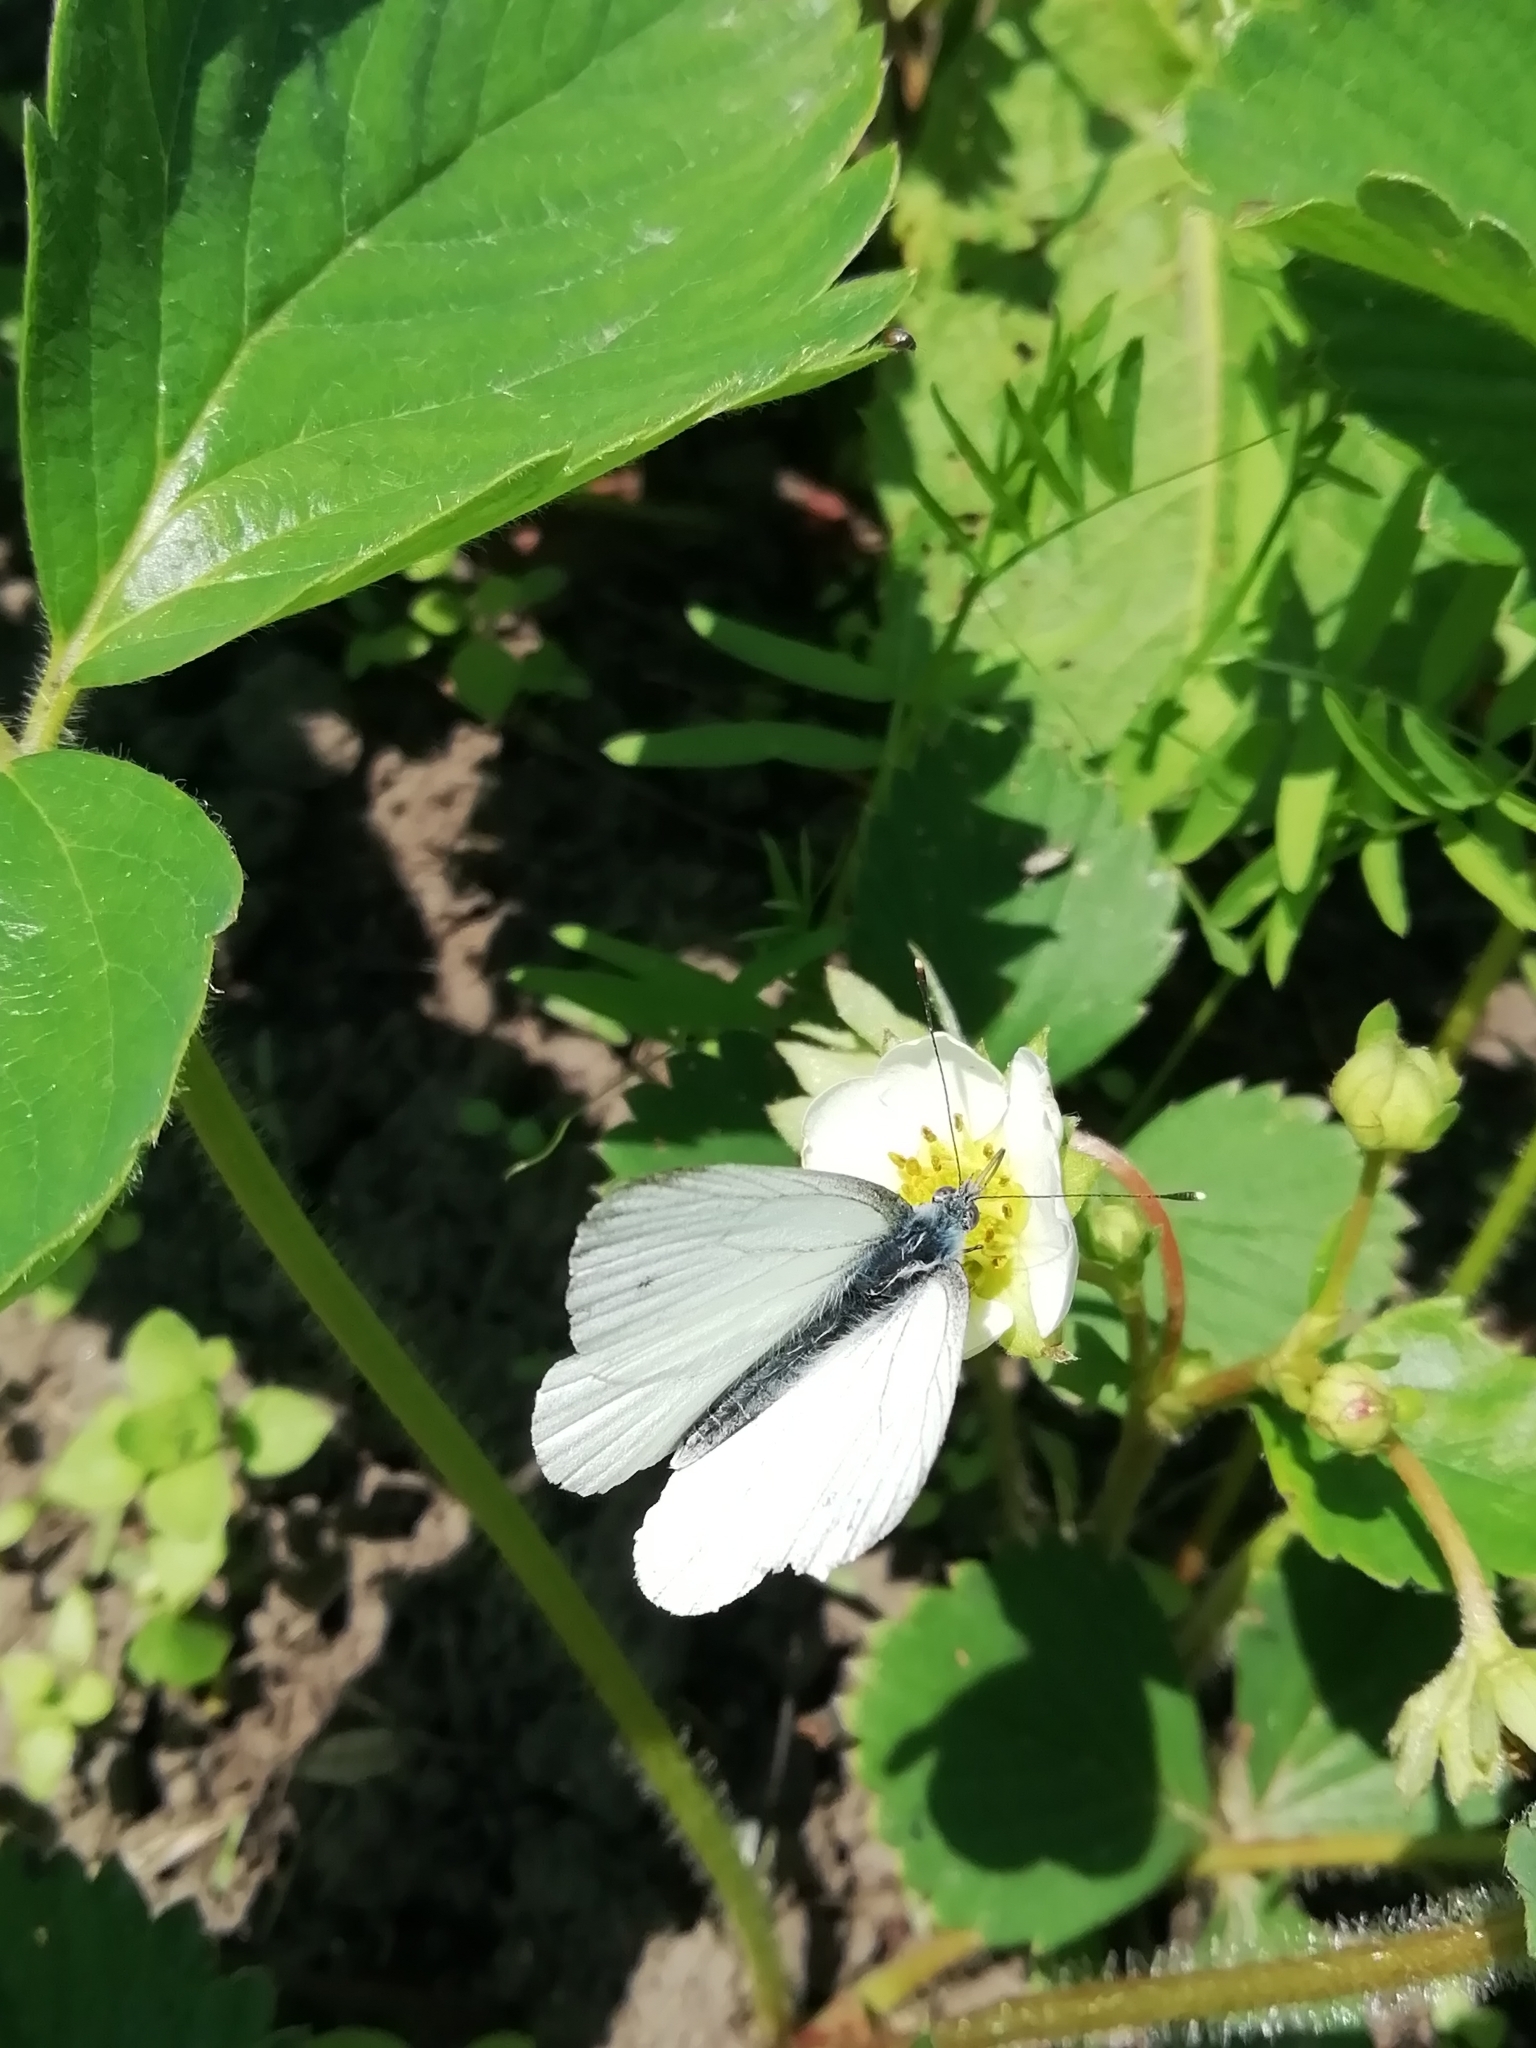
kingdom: Animalia
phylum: Arthropoda
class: Insecta
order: Lepidoptera
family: Pieridae
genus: Pieris
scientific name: Pieris napi
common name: Green-veined white
